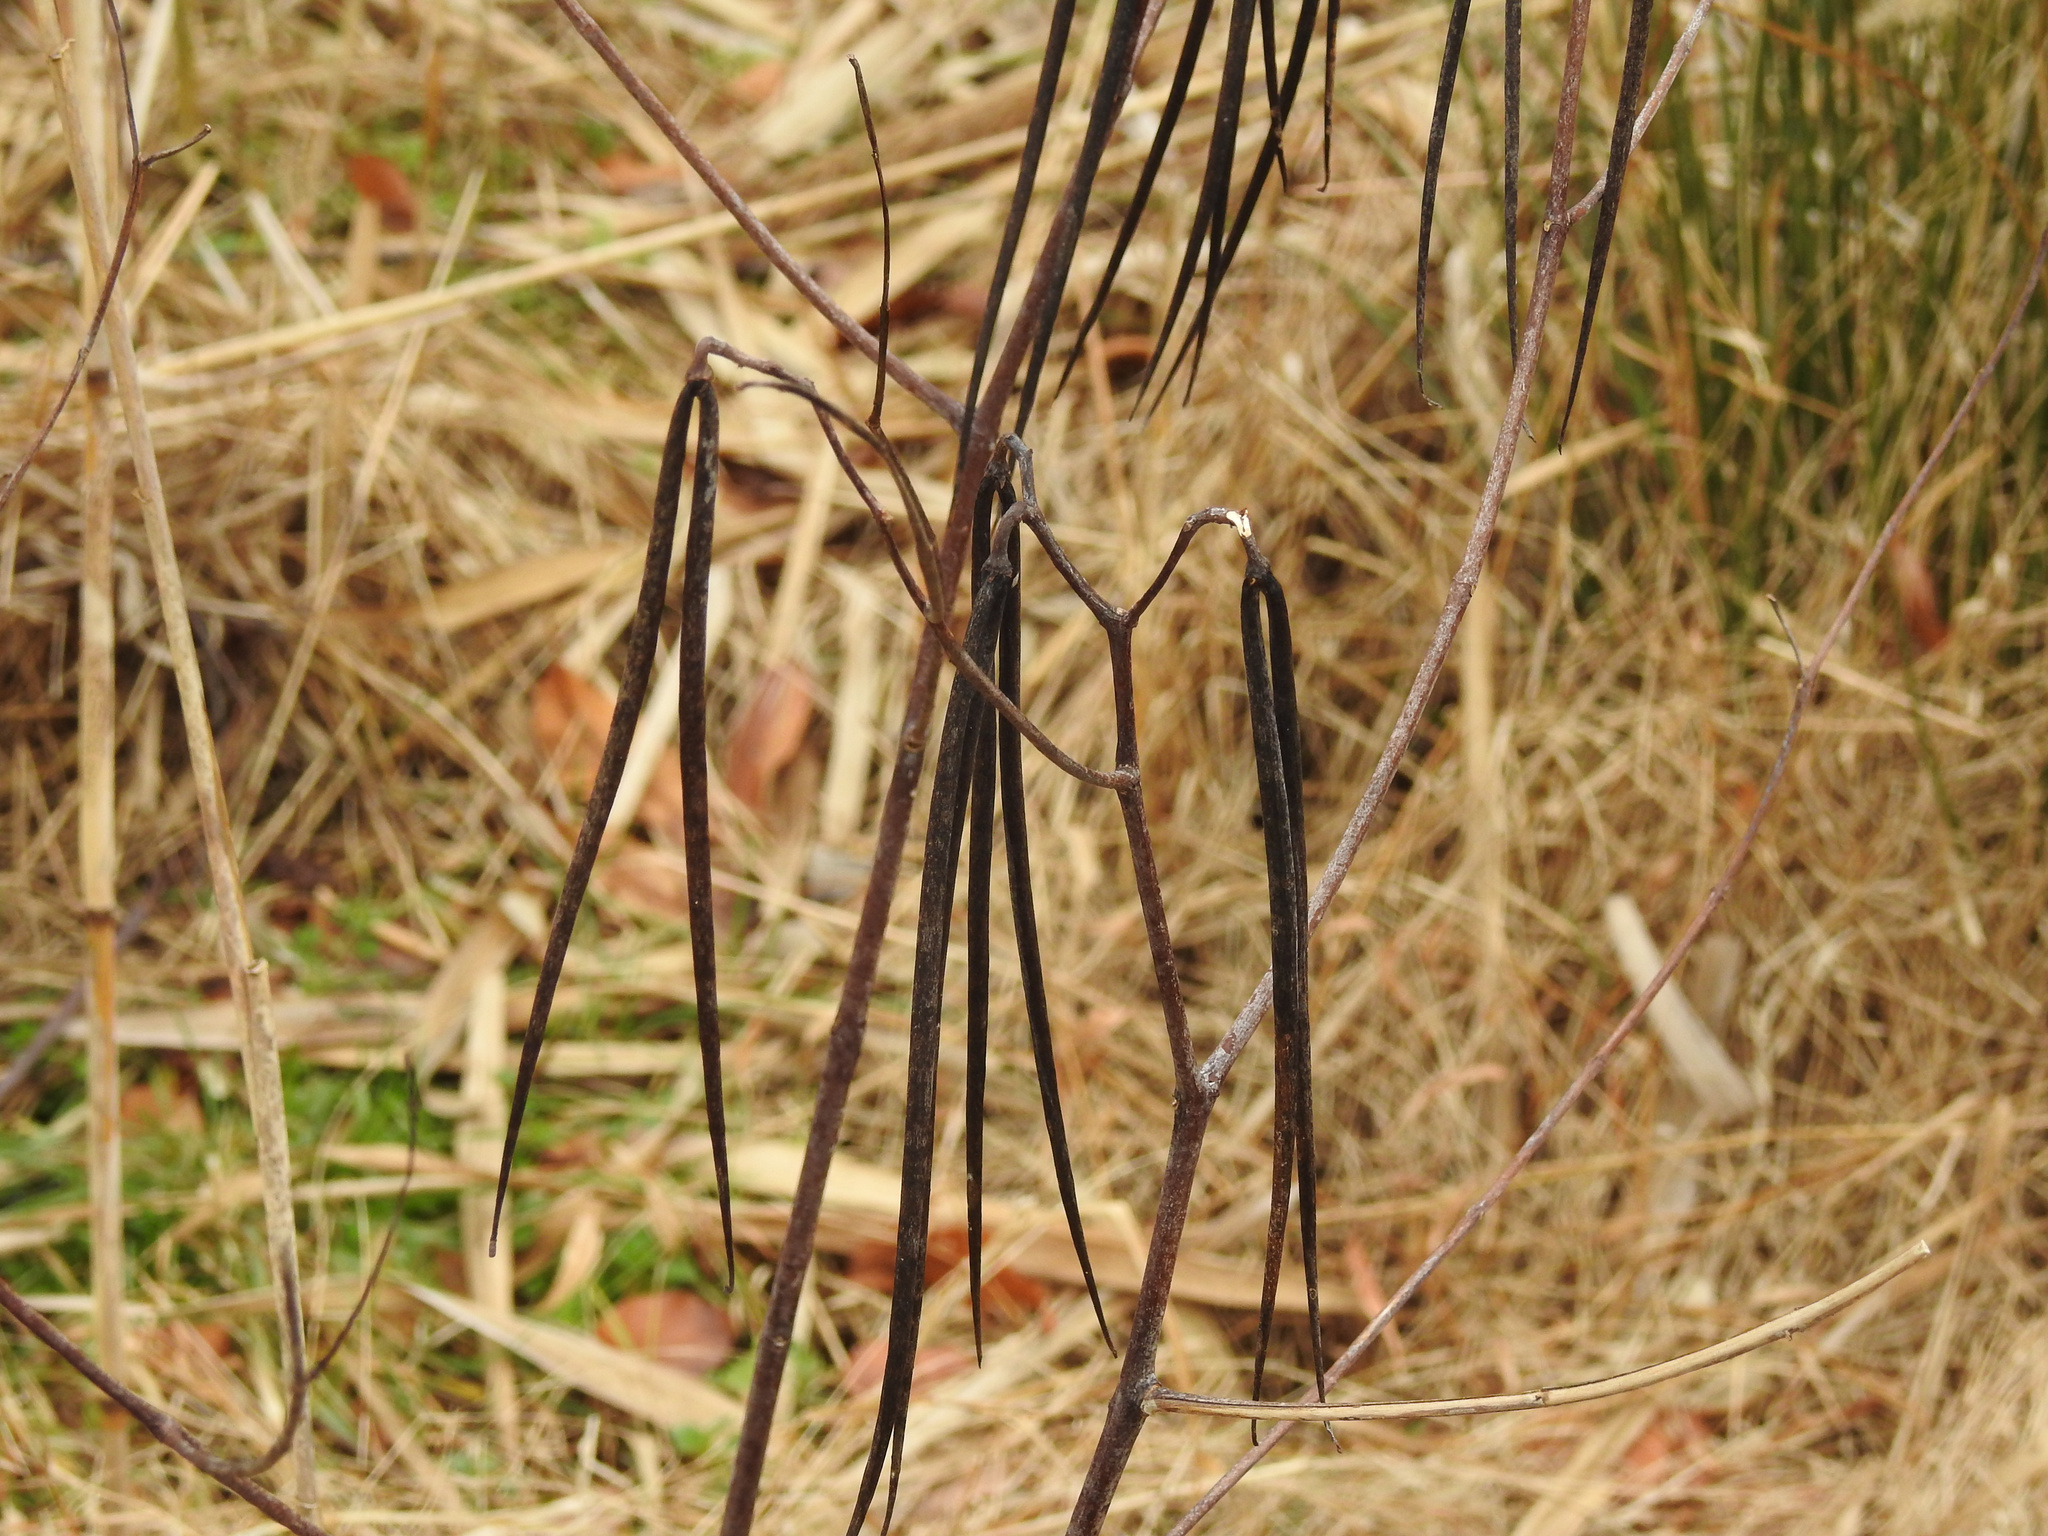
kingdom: Plantae
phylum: Tracheophyta
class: Magnoliopsida
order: Gentianales
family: Apocynaceae
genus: Apocynum
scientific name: Apocynum cannabinum
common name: Hemp dogbane
